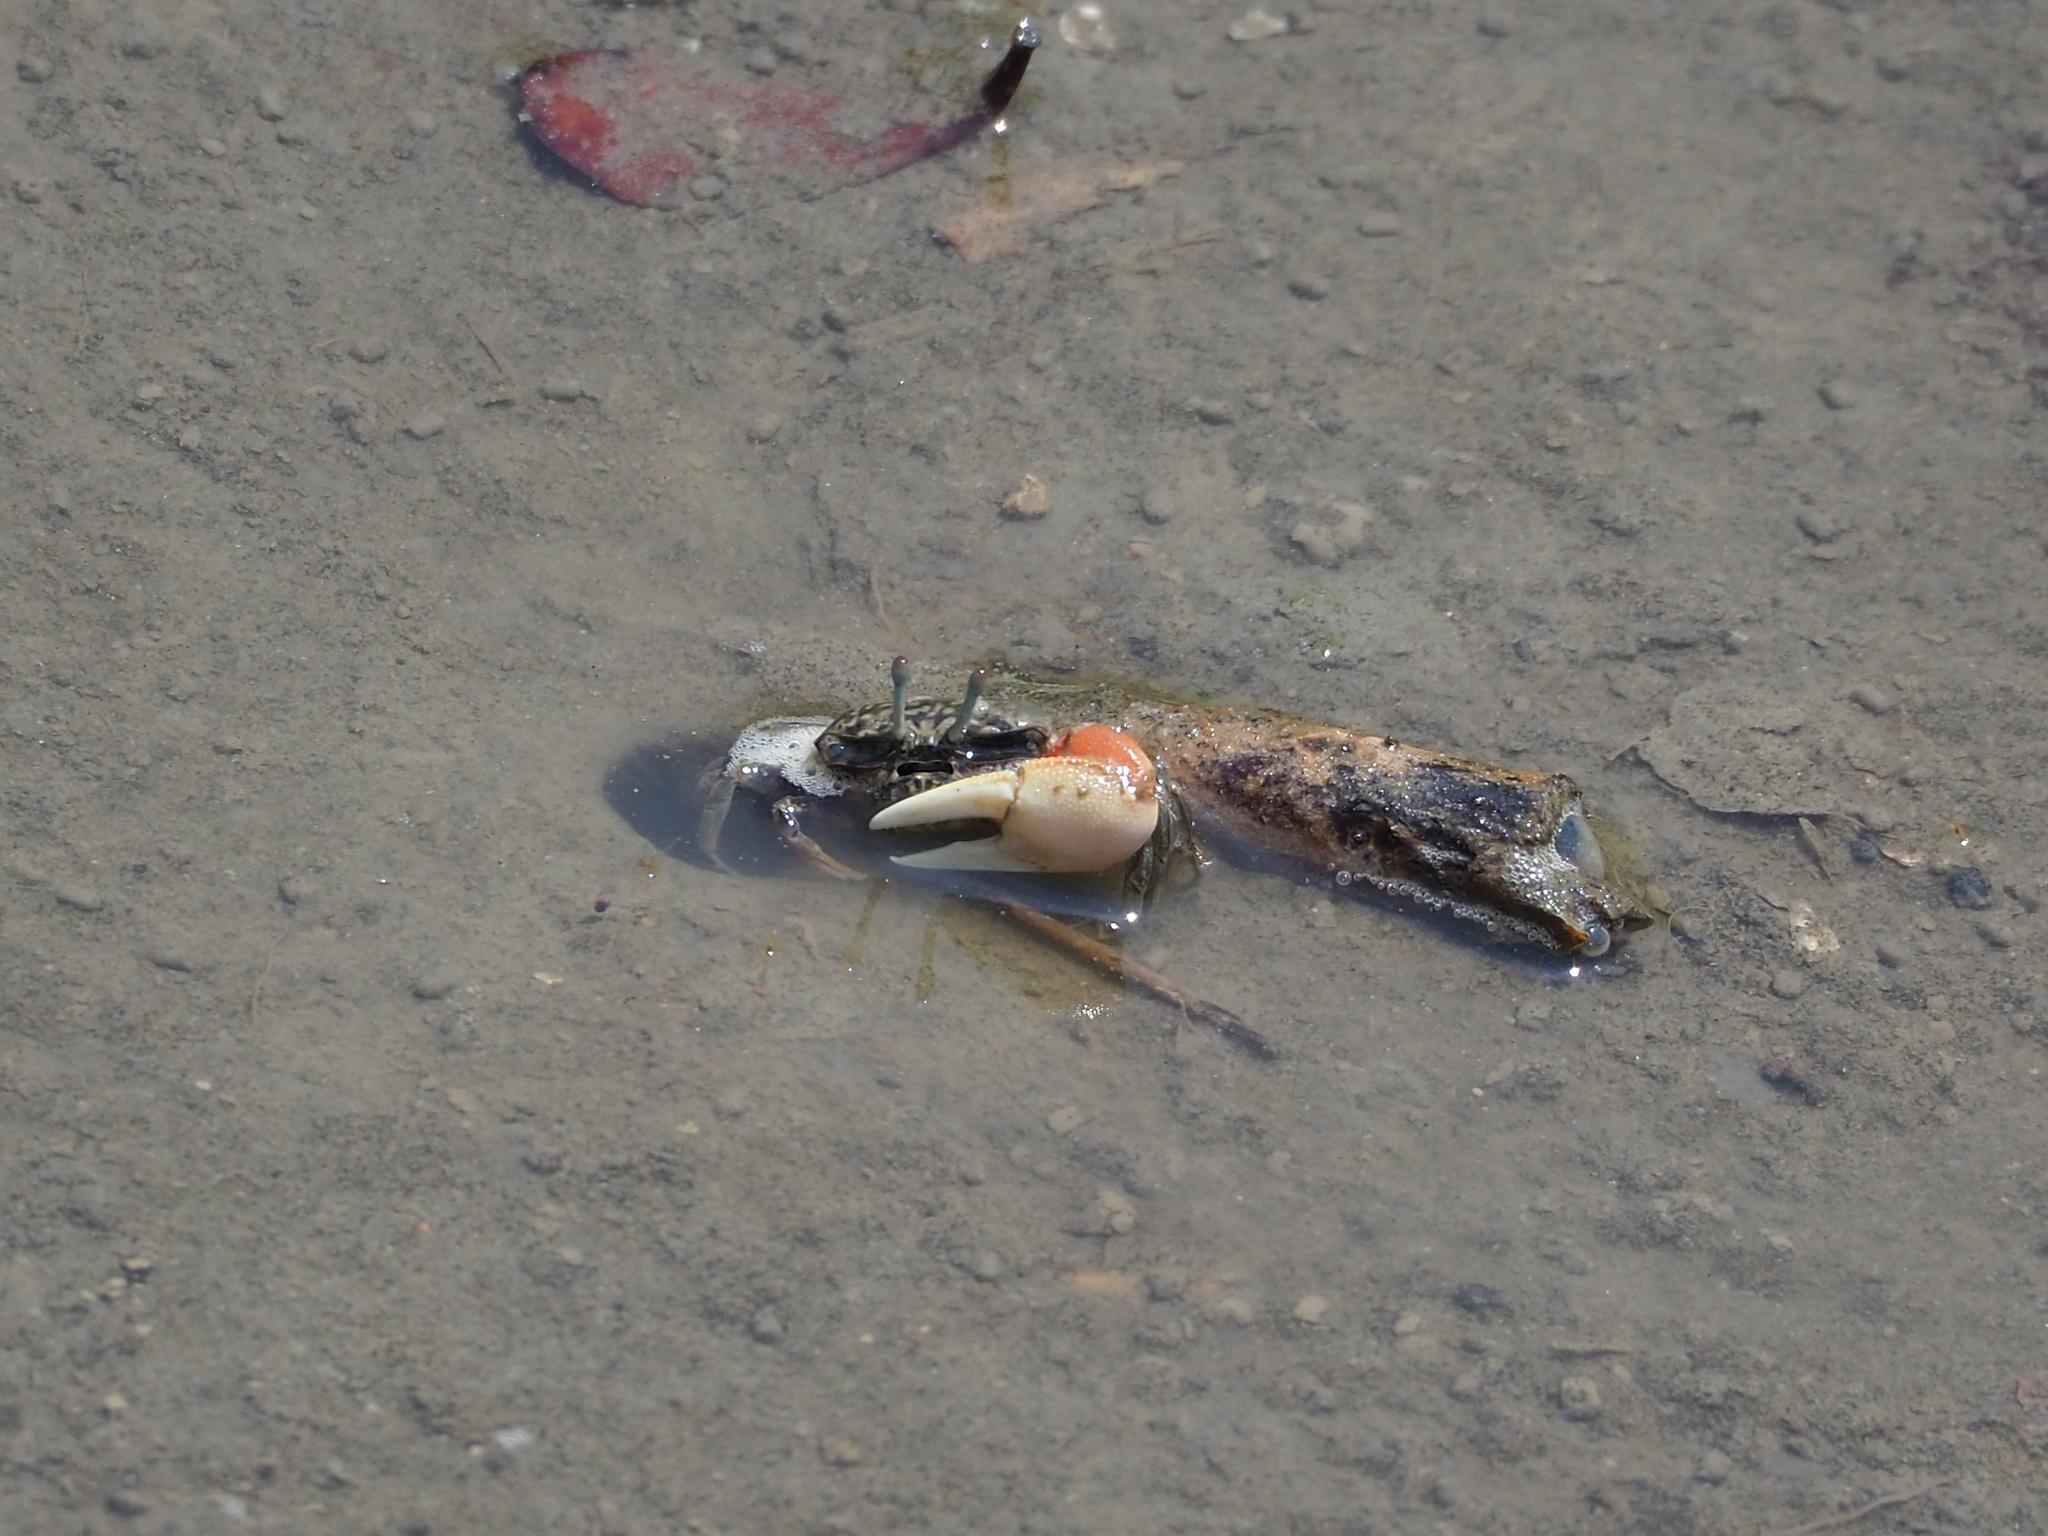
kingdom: Animalia
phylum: Arthropoda
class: Malacostraca
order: Decapoda
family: Ocypodidae
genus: Tubuca
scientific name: Tubuca arcuata
